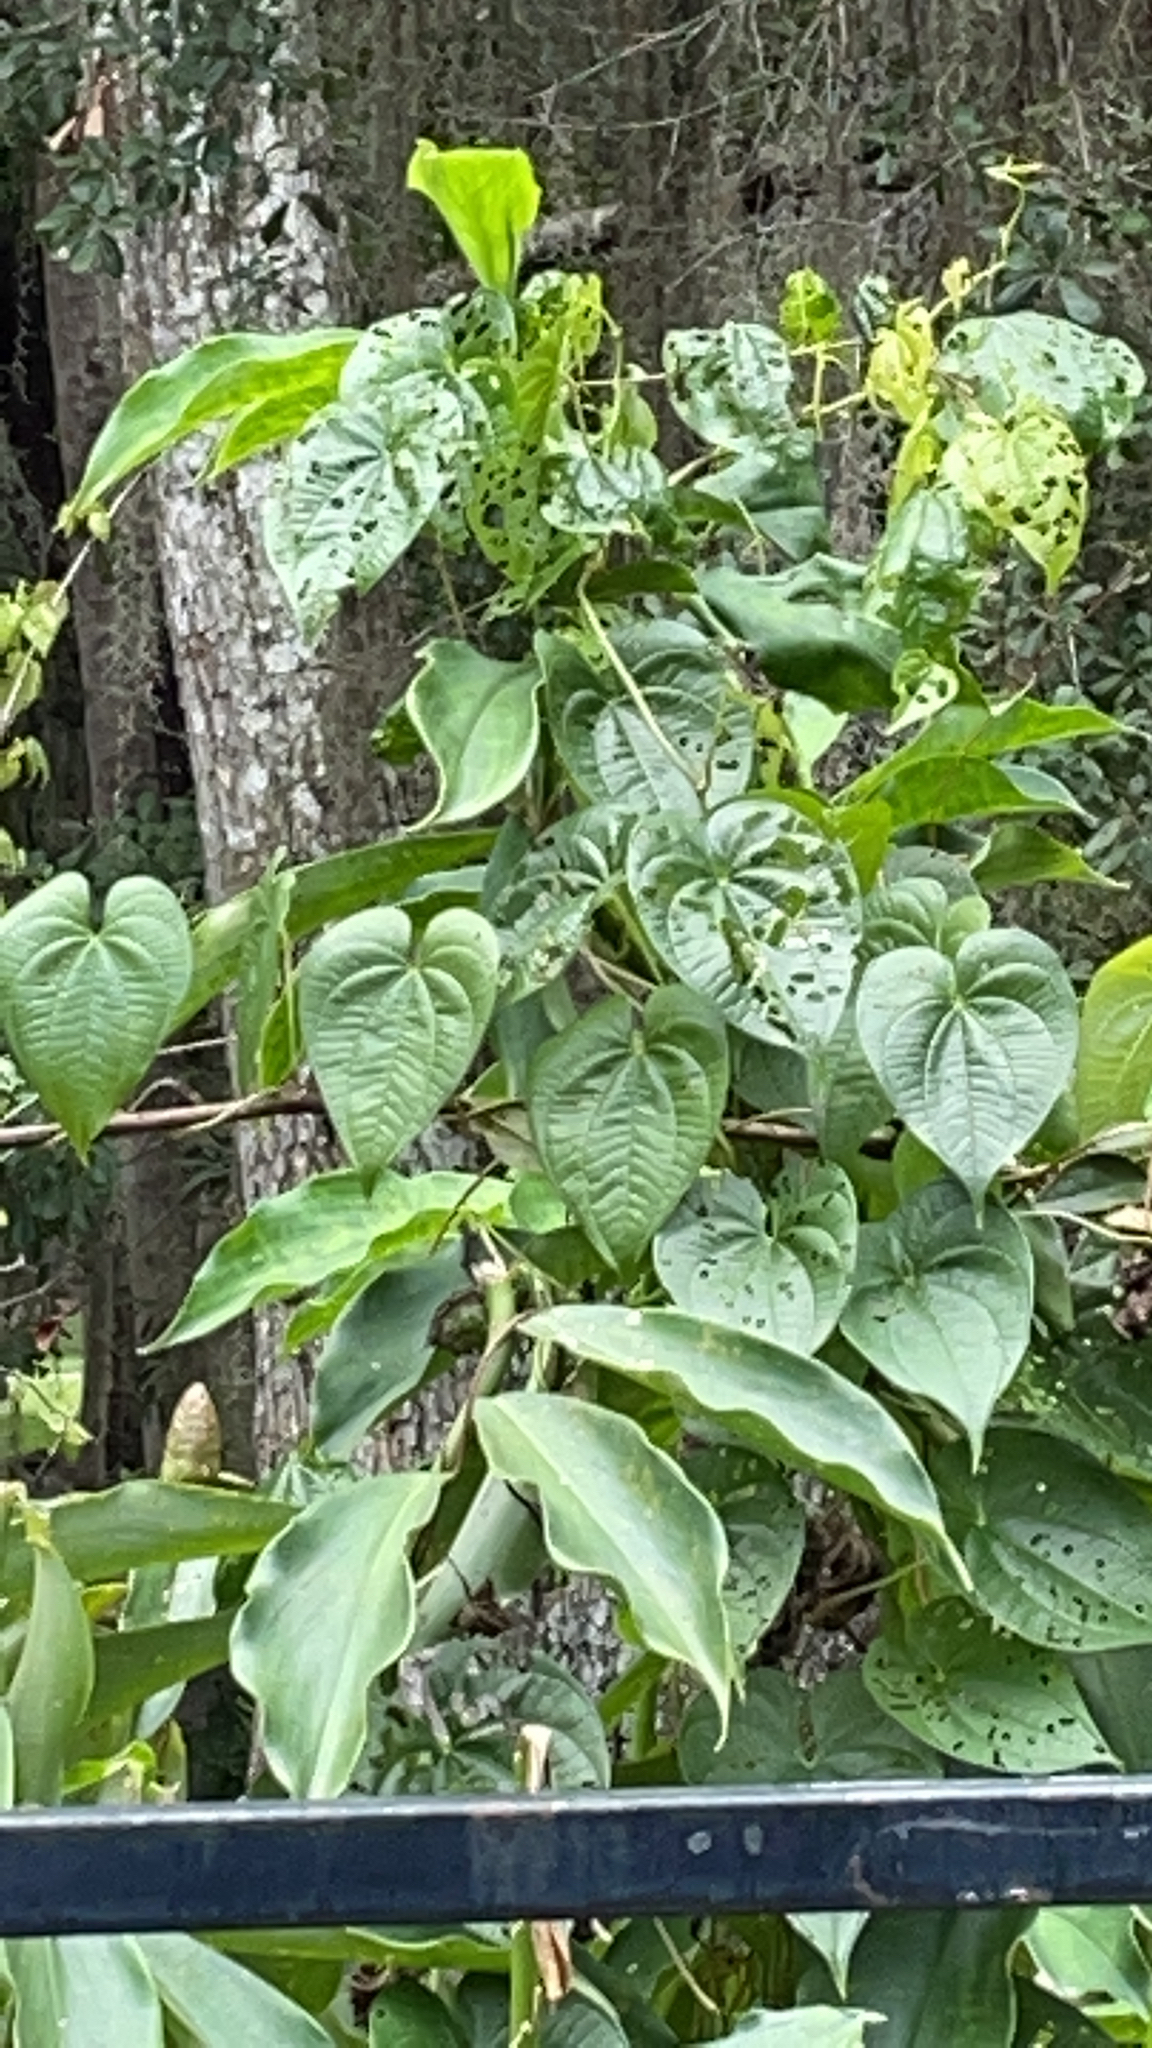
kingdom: Plantae
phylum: Tracheophyta
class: Liliopsida
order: Dioscoreales
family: Dioscoreaceae
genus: Dioscorea
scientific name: Dioscorea bulbifera
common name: Air yam
